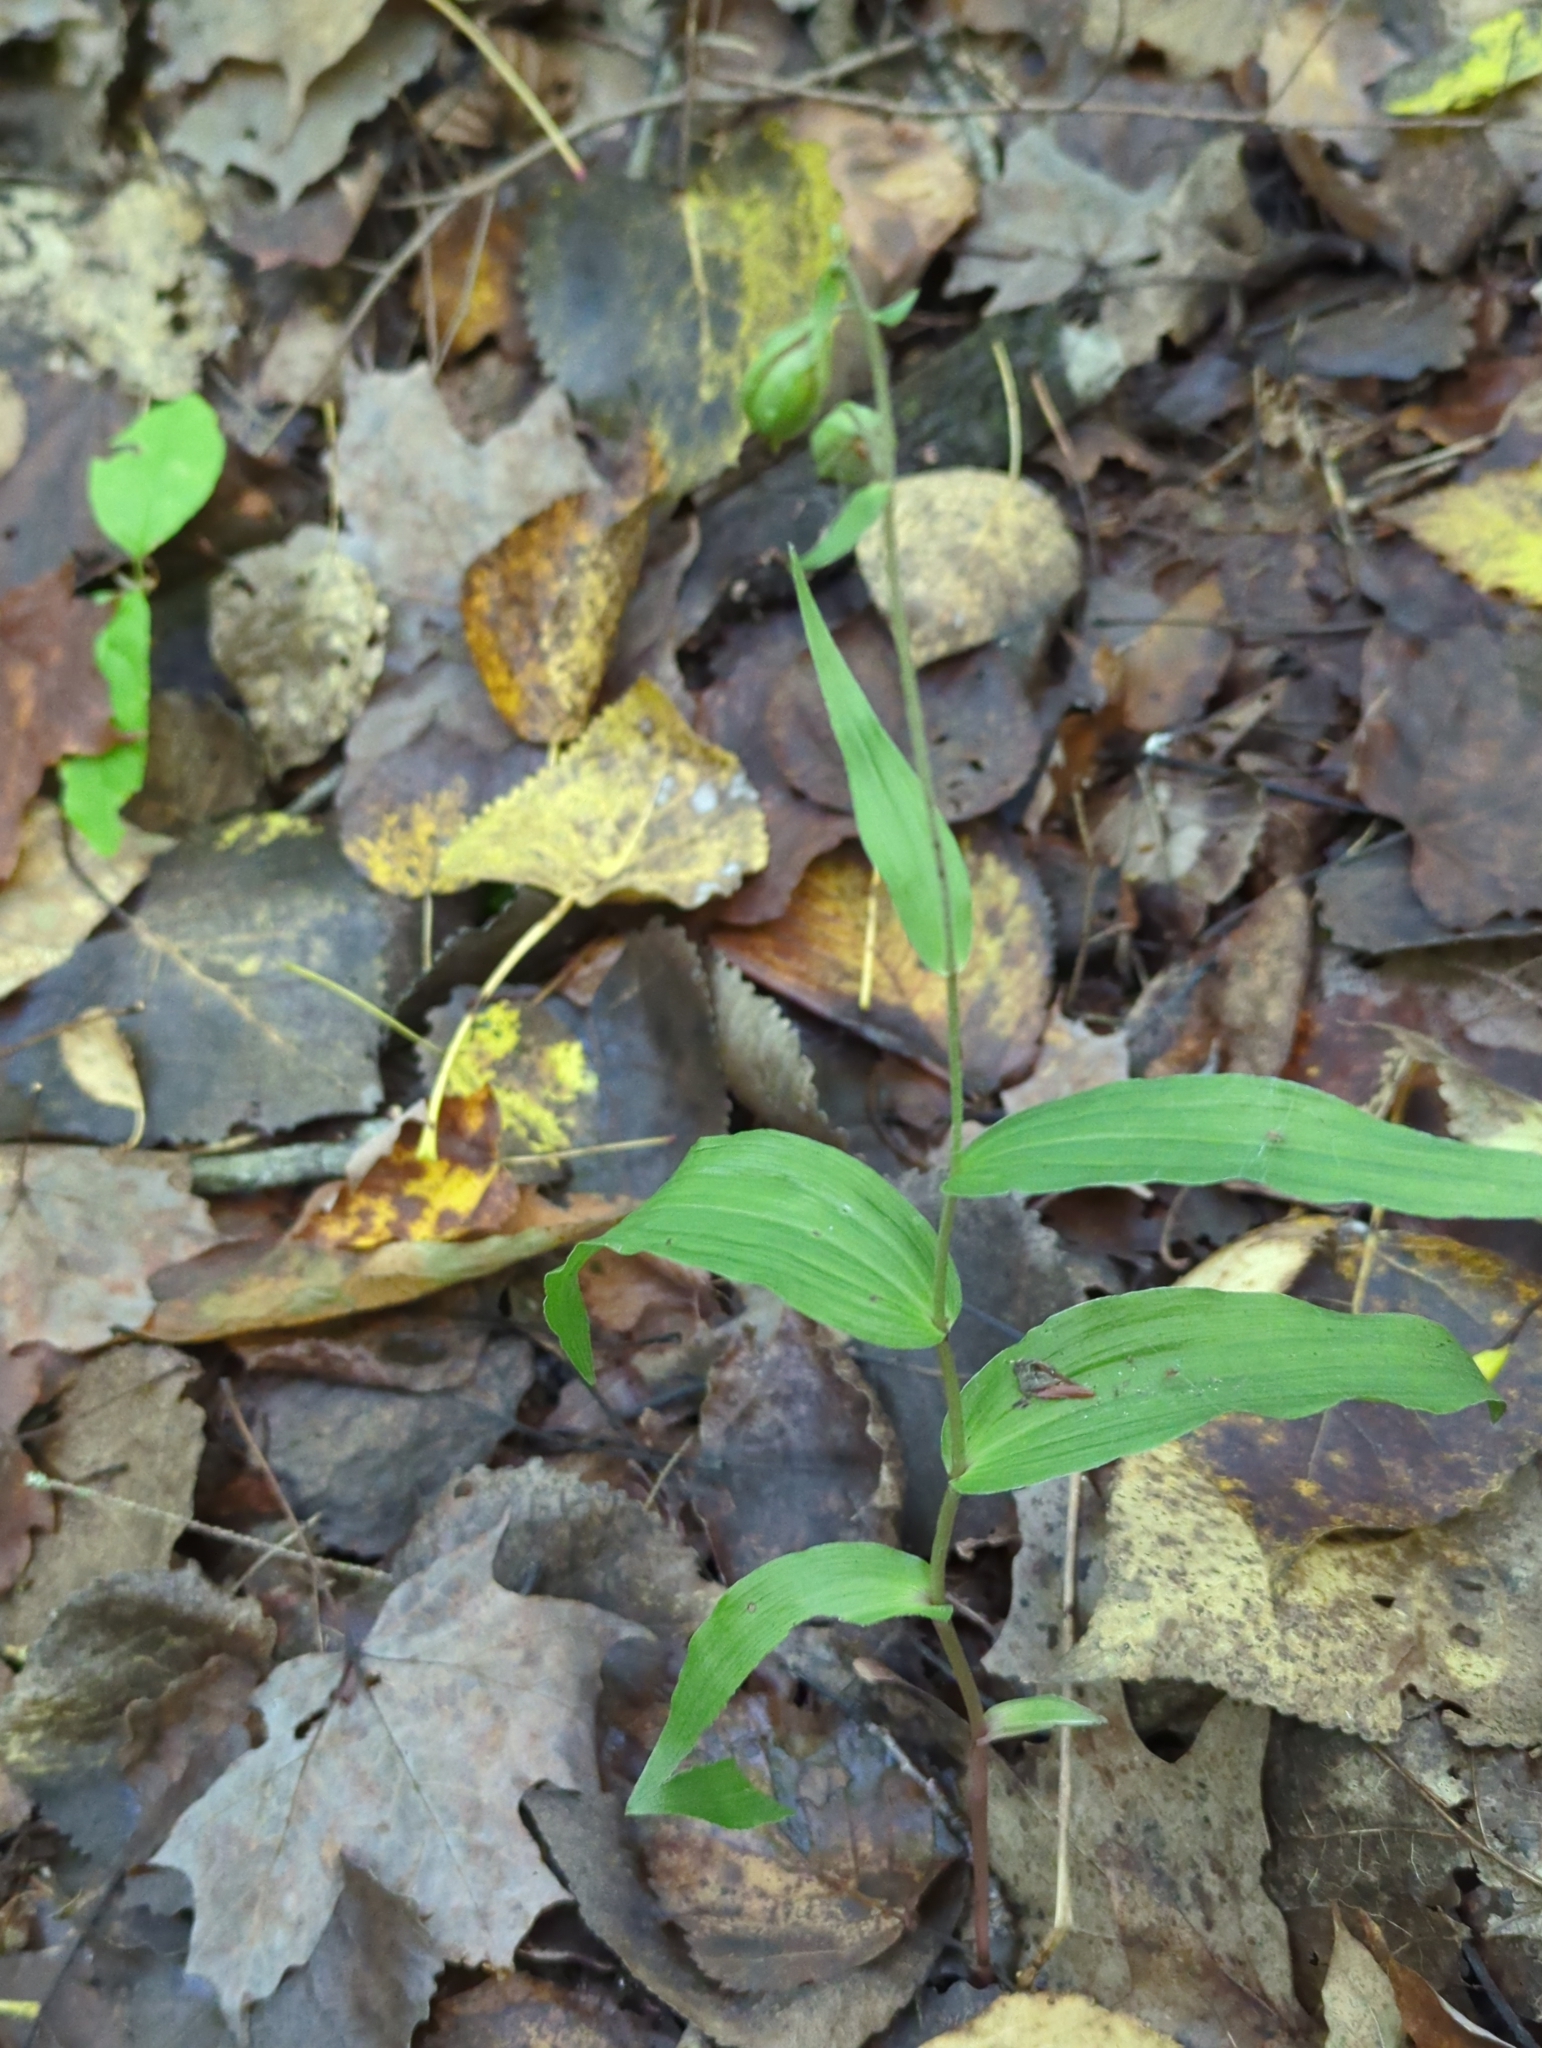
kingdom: Plantae
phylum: Tracheophyta
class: Liliopsida
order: Asparagales
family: Orchidaceae
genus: Epipactis
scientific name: Epipactis helleborine
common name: Broad-leaved helleborine
